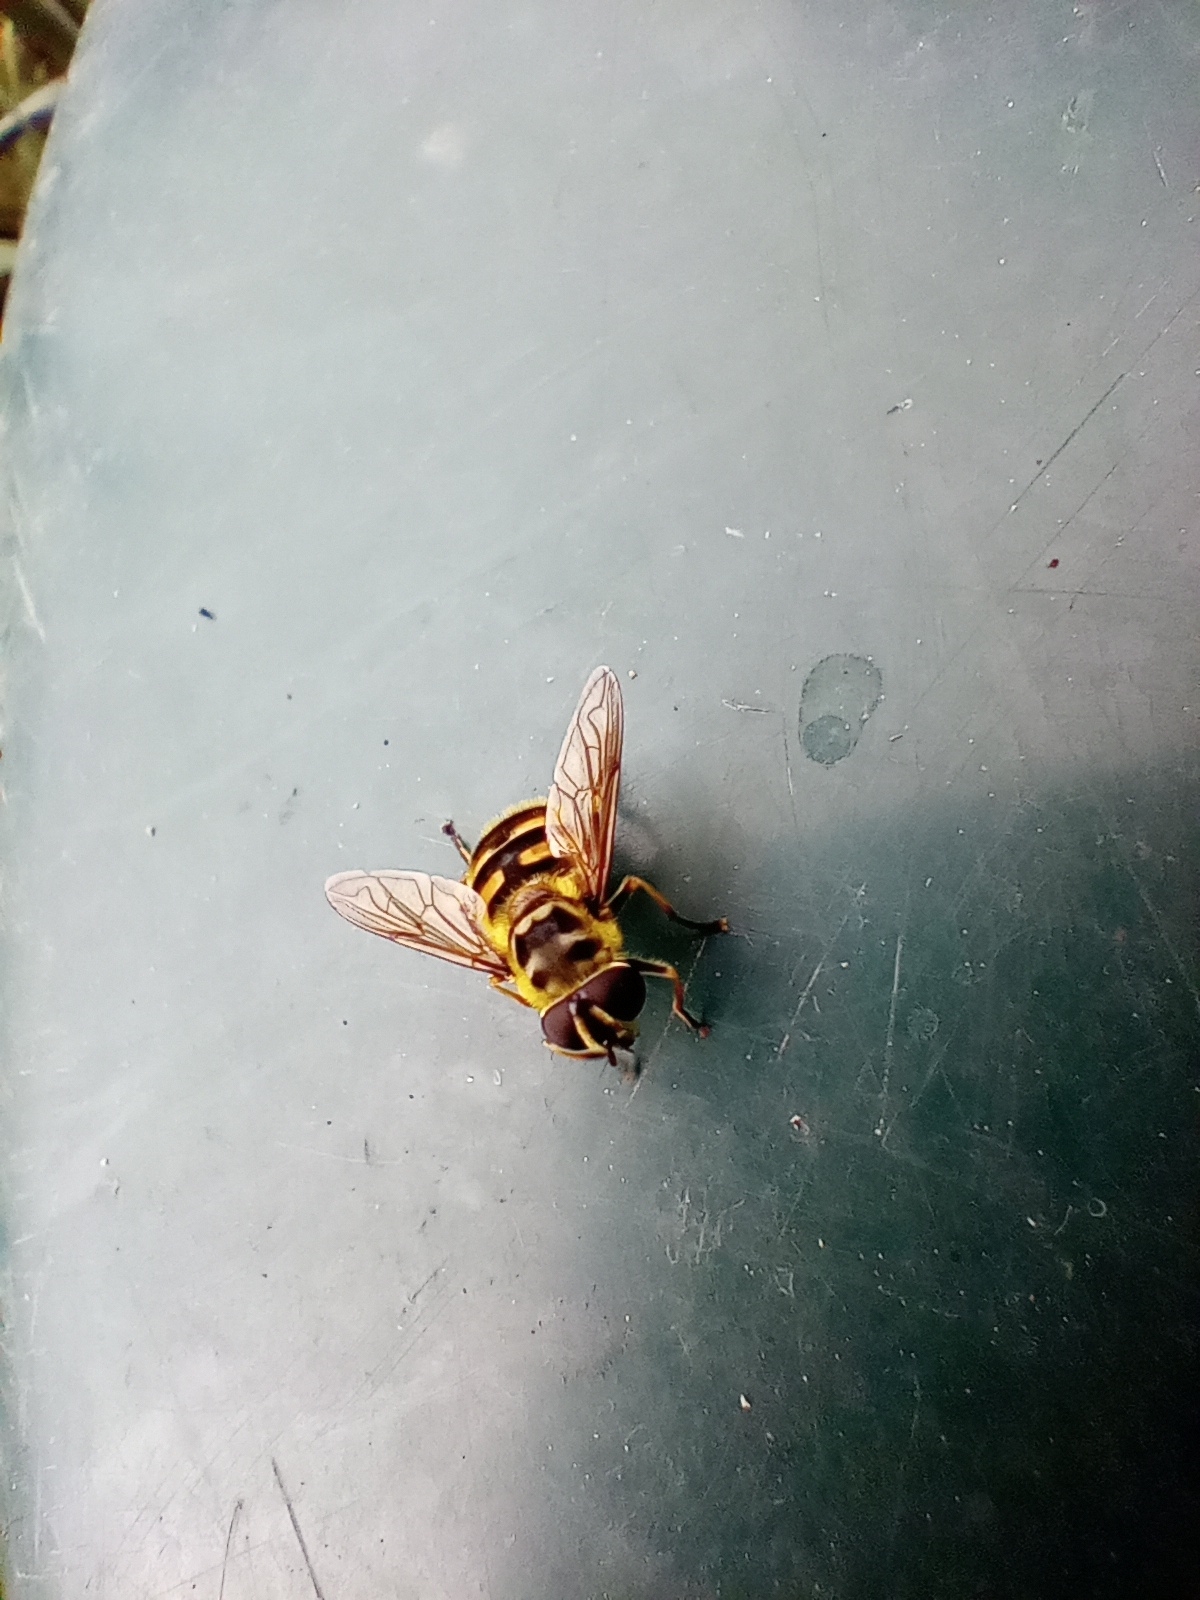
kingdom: Animalia
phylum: Arthropoda
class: Insecta
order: Diptera
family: Syrphidae
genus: Myathropa
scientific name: Myathropa florea
